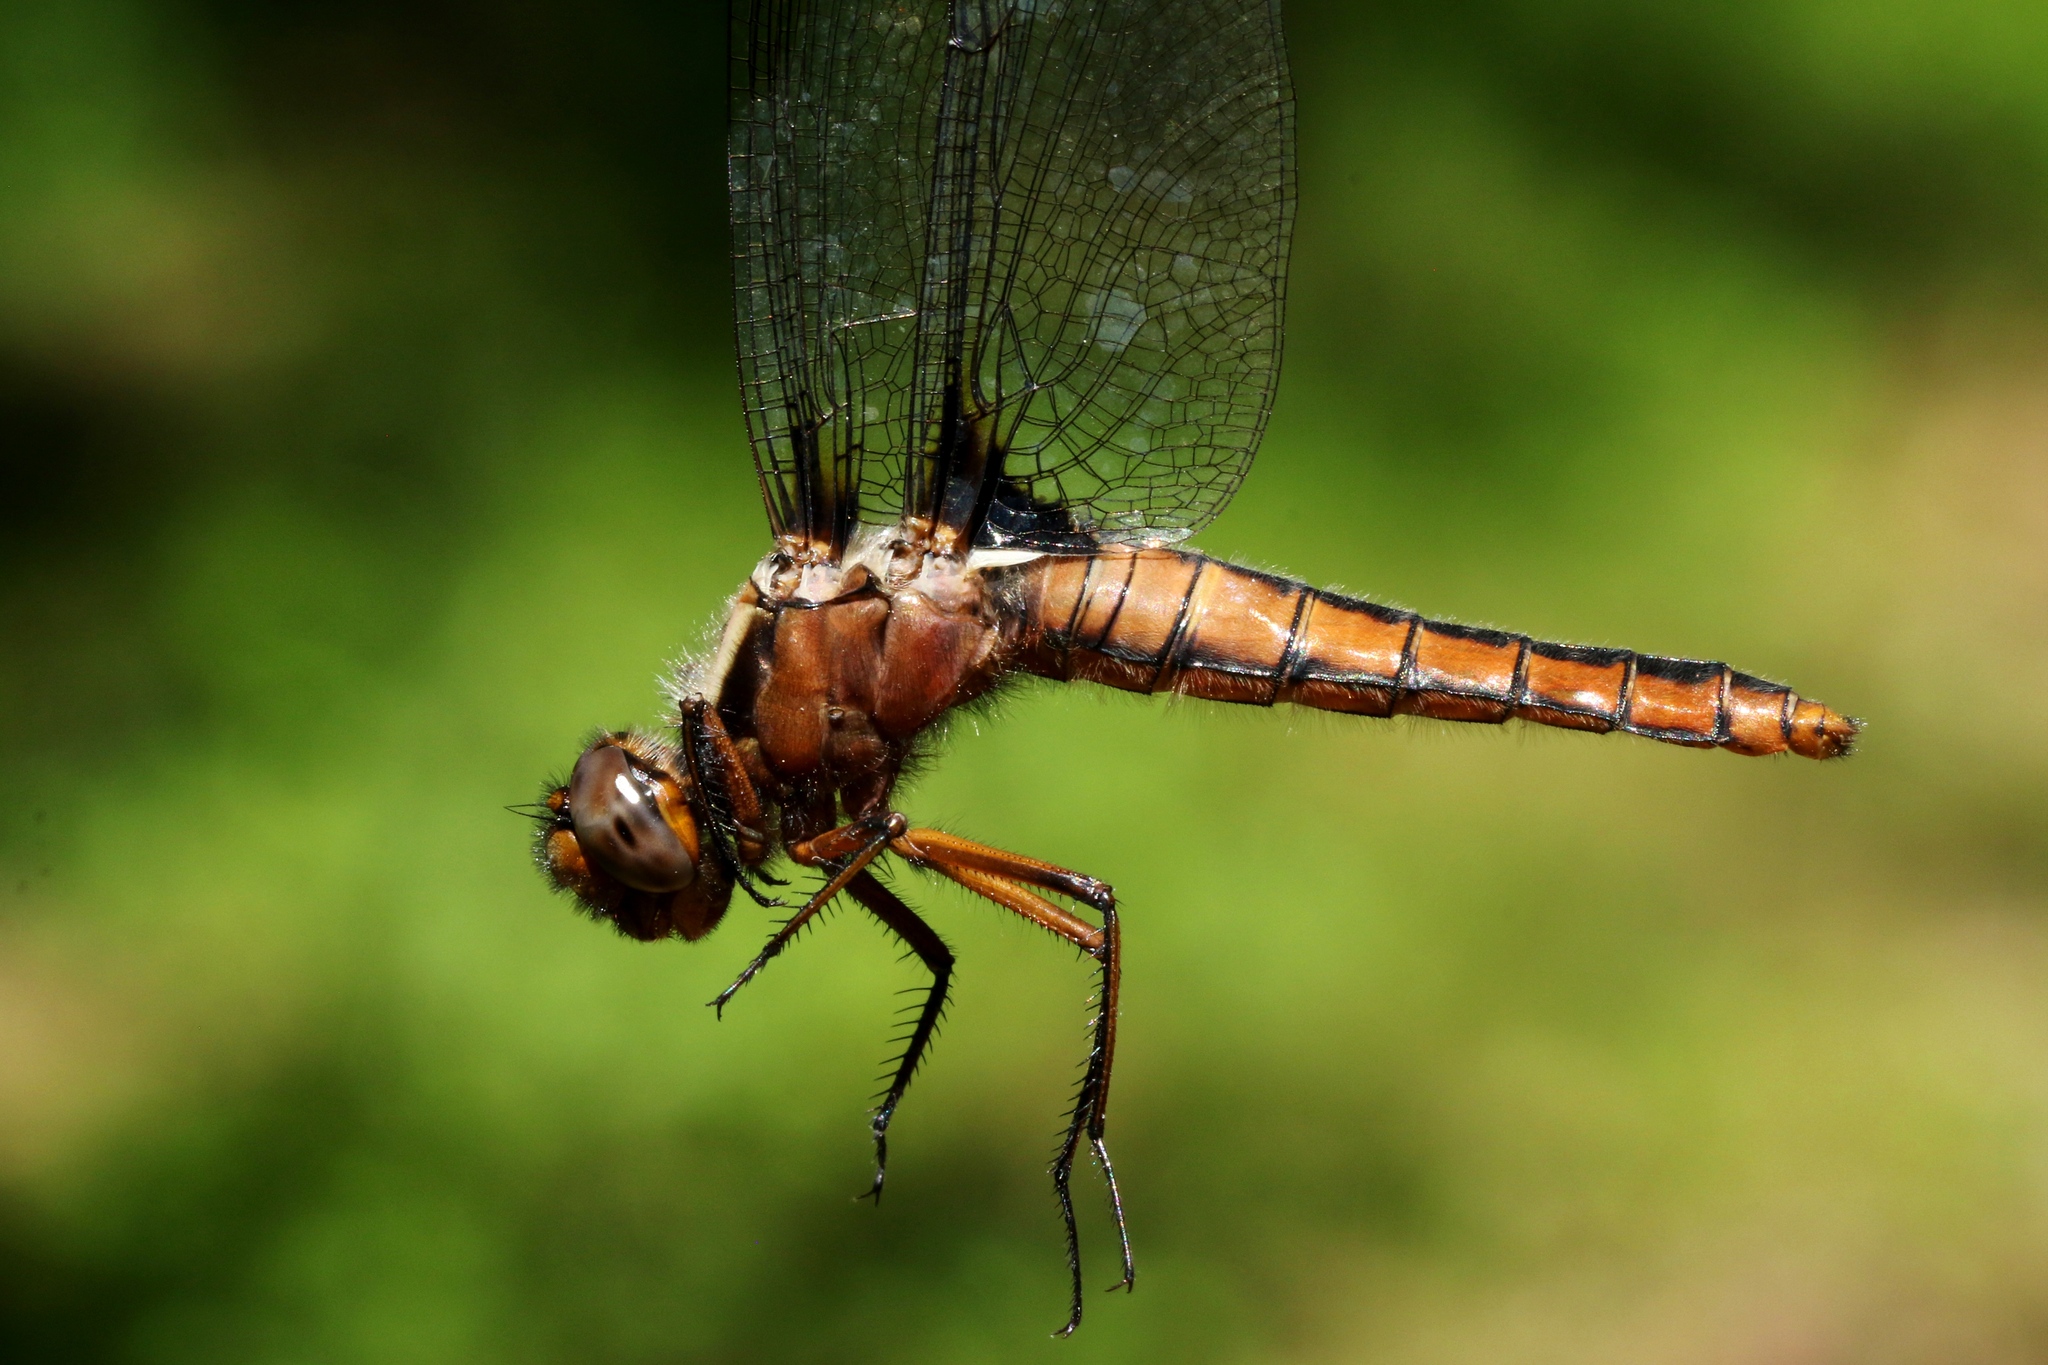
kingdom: Animalia
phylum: Arthropoda
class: Insecta
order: Odonata
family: Libellulidae
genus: Ladona
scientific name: Ladona julia
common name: Chalk-fronted corporal
